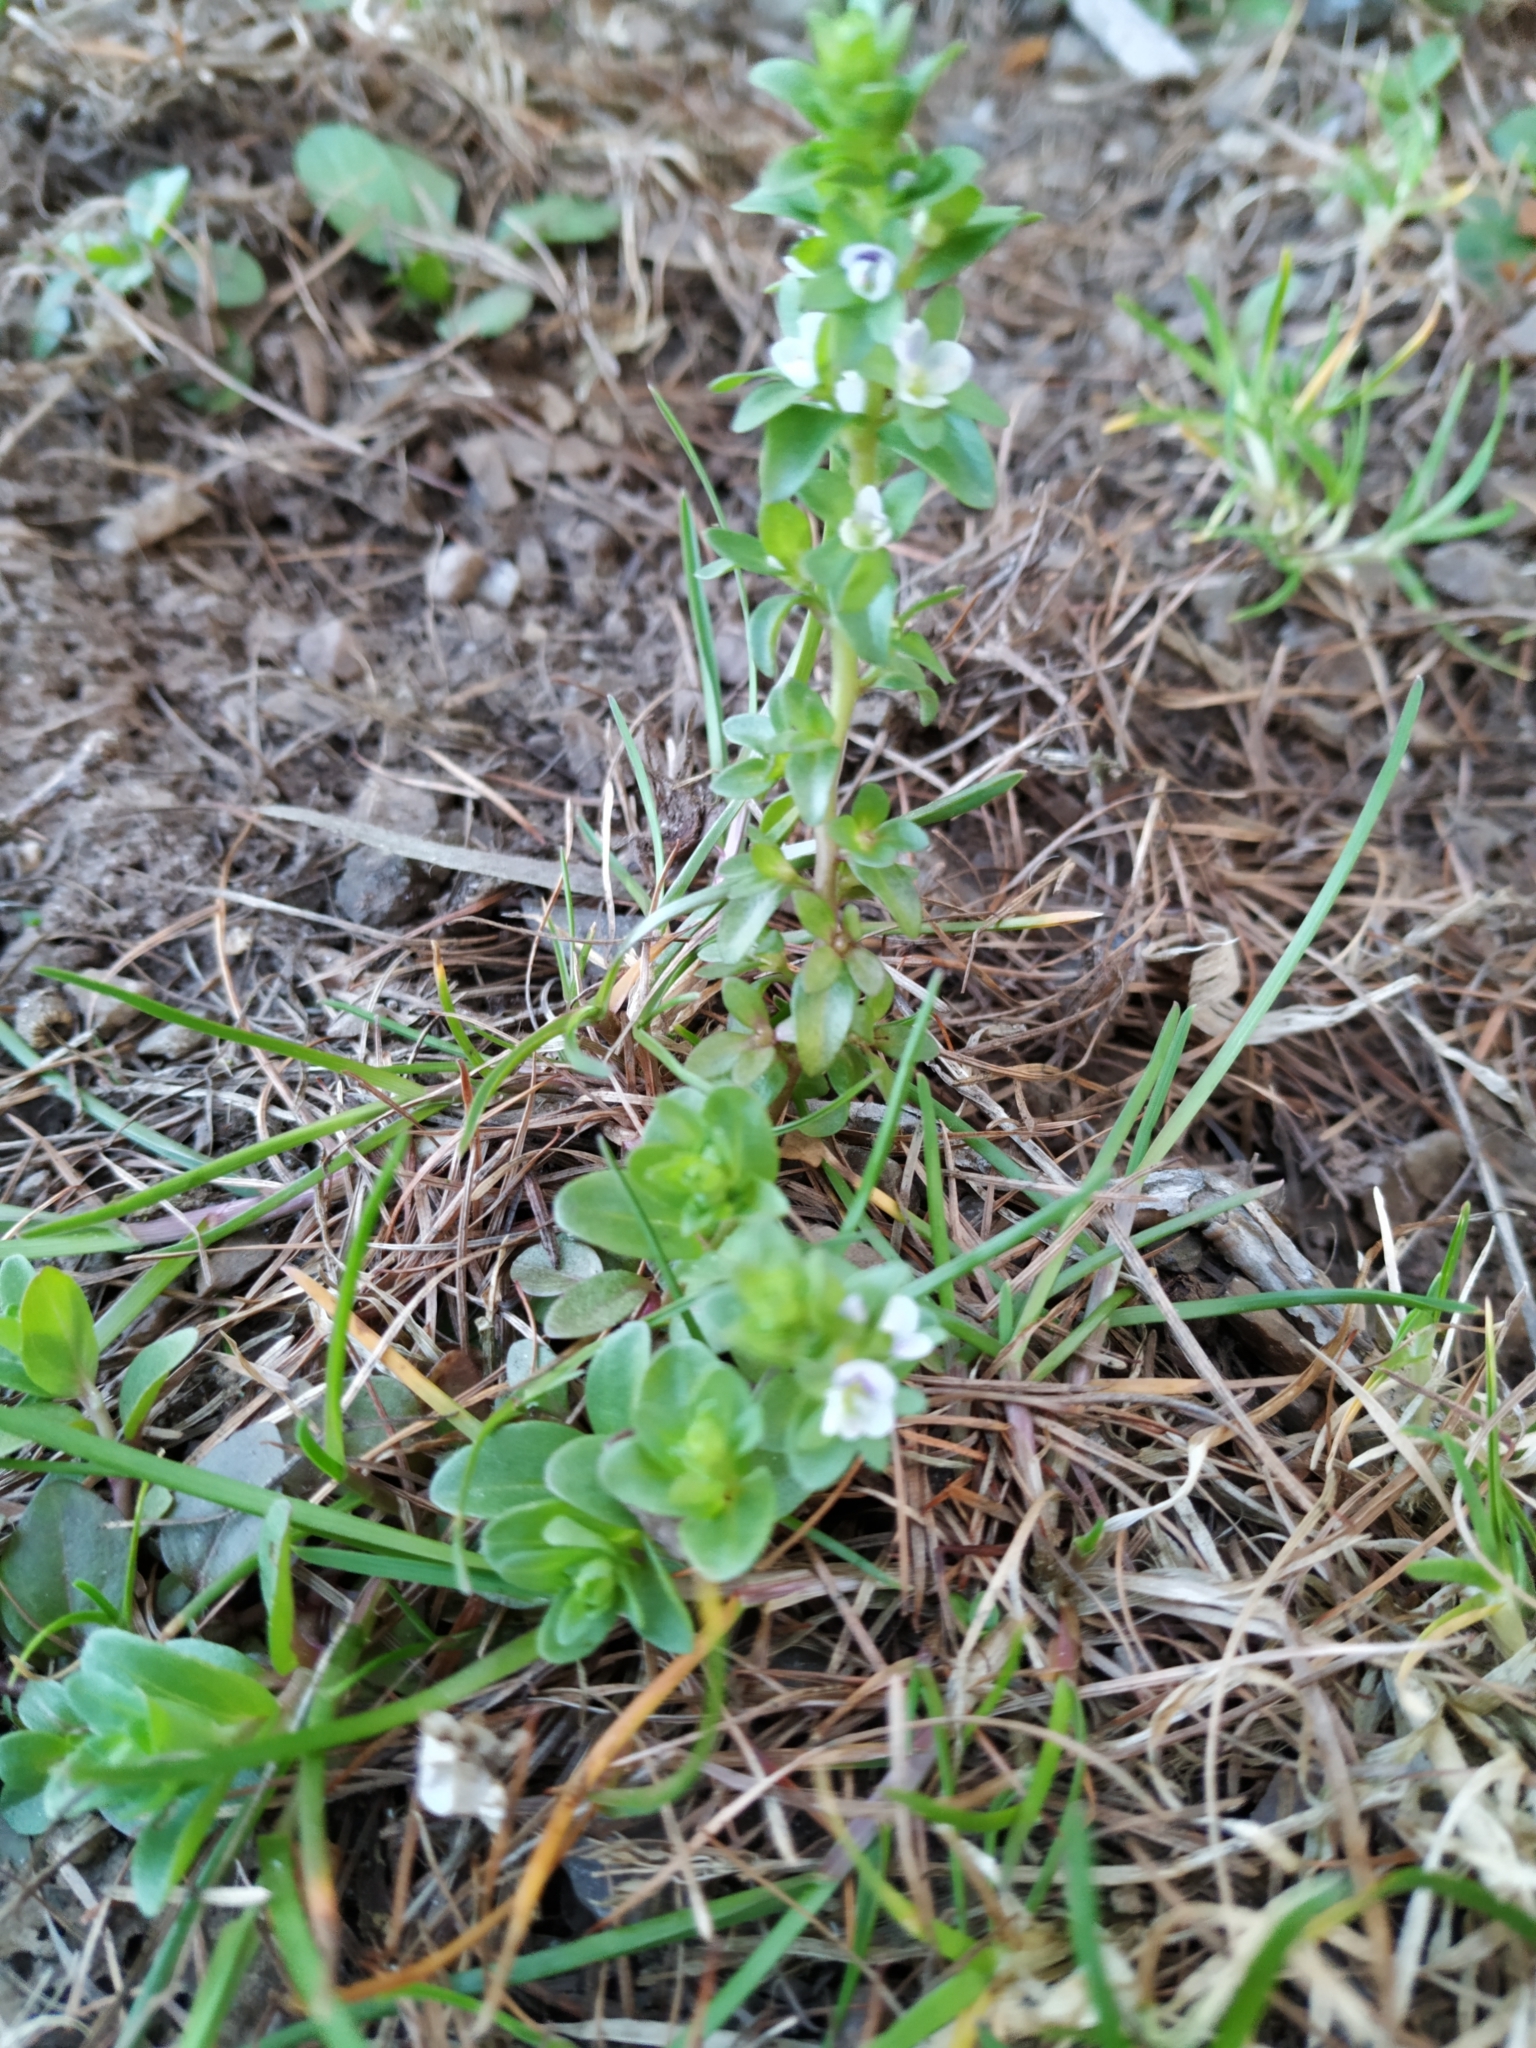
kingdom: Plantae
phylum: Tracheophyta
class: Magnoliopsida
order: Lamiales
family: Plantaginaceae
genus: Veronica
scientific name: Veronica serpyllifolia
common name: Thyme-leaved speedwell
